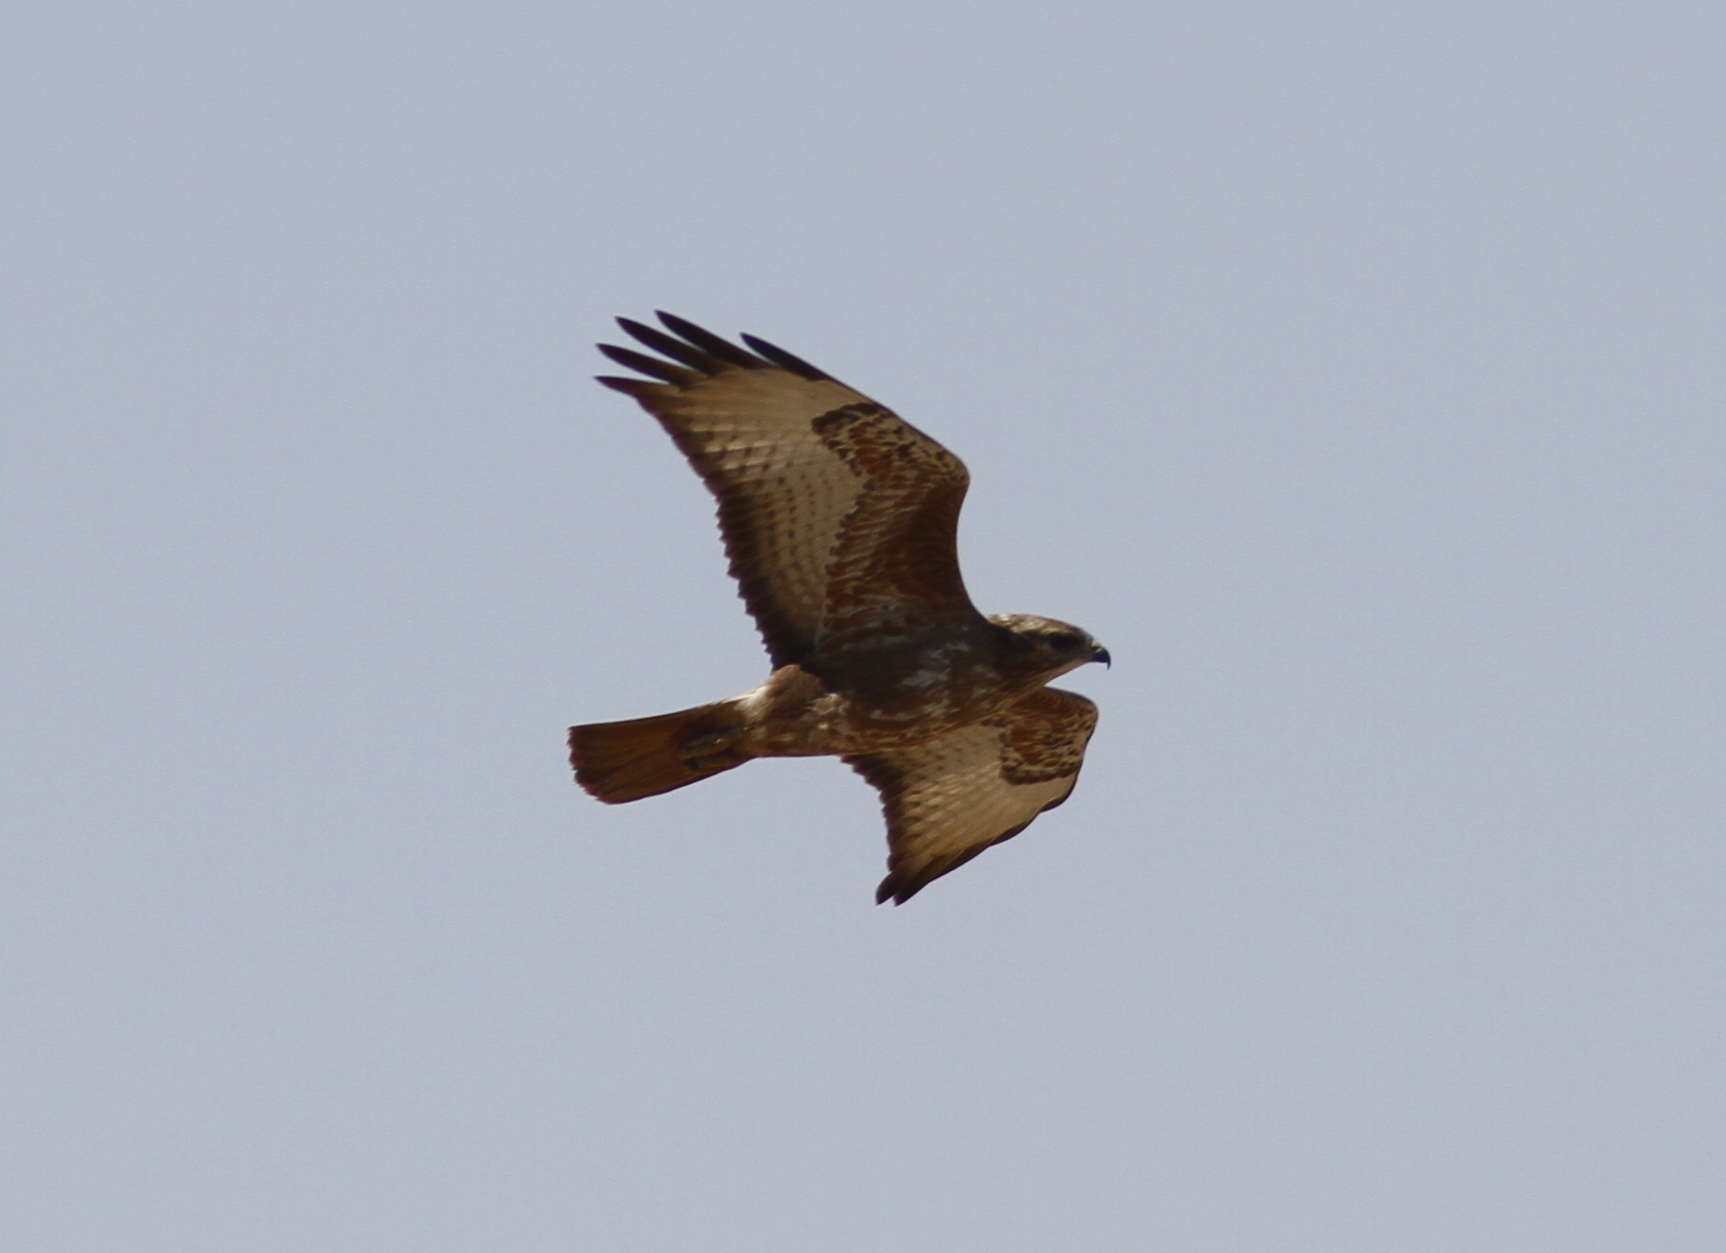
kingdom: Animalia
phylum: Chordata
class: Aves
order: Accipitriformes
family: Accipitridae
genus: Buteo
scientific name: Buteo buteo
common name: Common buzzard
